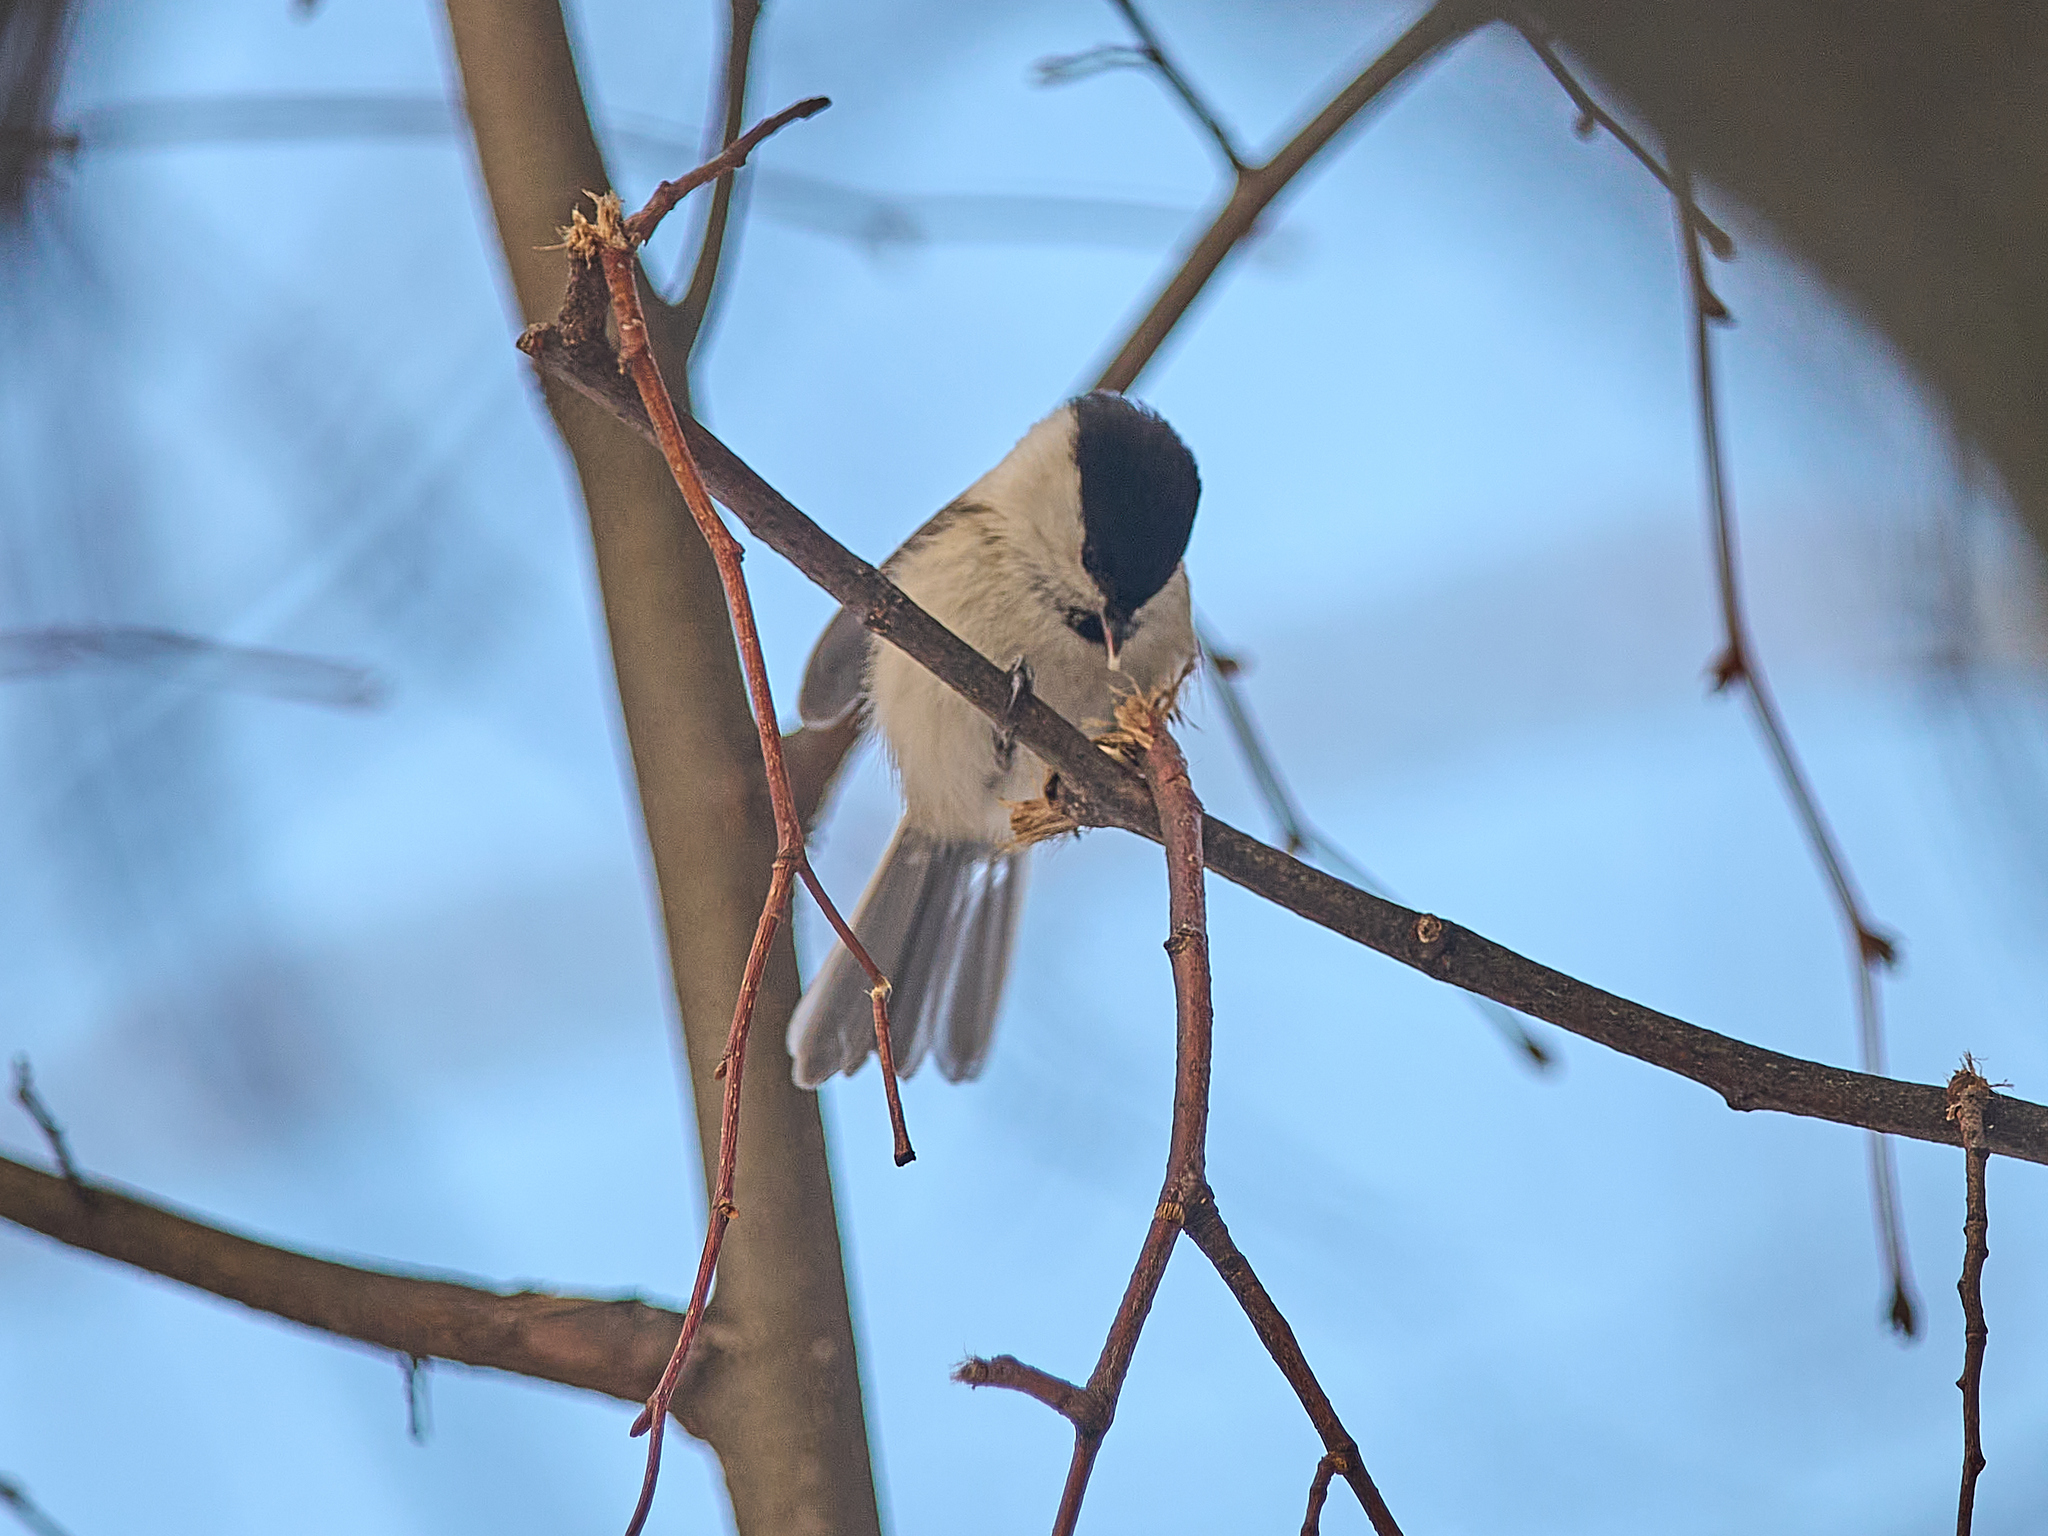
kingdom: Animalia
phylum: Chordata
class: Aves
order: Passeriformes
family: Paridae
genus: Poecile
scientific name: Poecile montanus
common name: Willow tit
